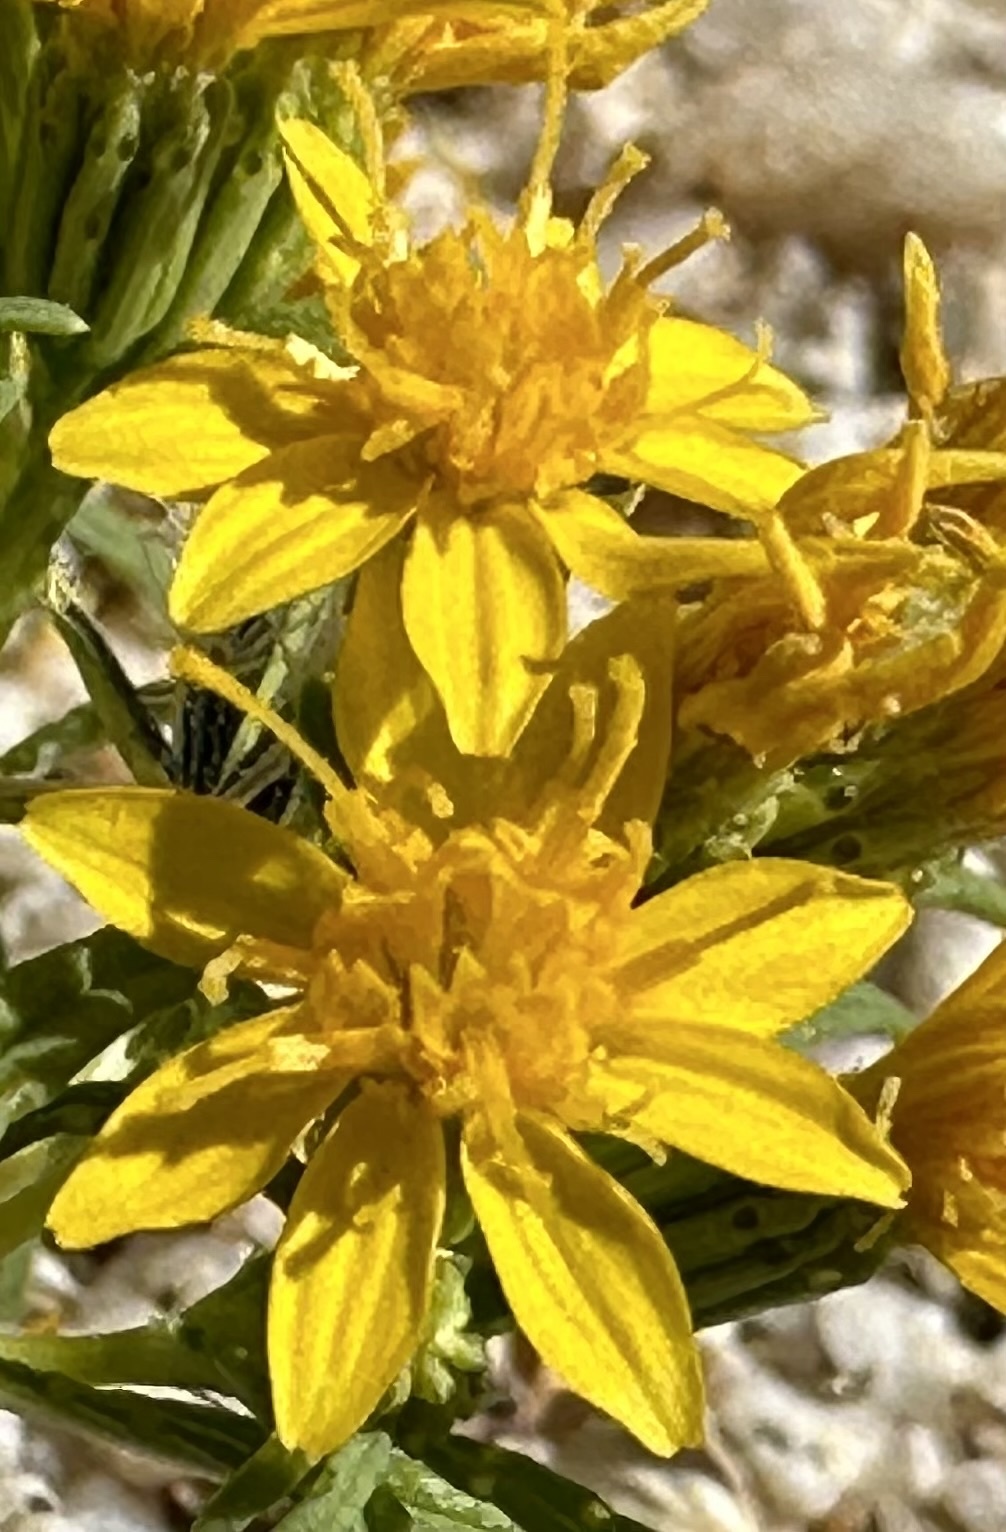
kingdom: Plantae
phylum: Tracheophyta
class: Magnoliopsida
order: Asterales
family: Asteraceae
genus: Pectis
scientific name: Pectis papposa
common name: Many-bristle chinchweed
